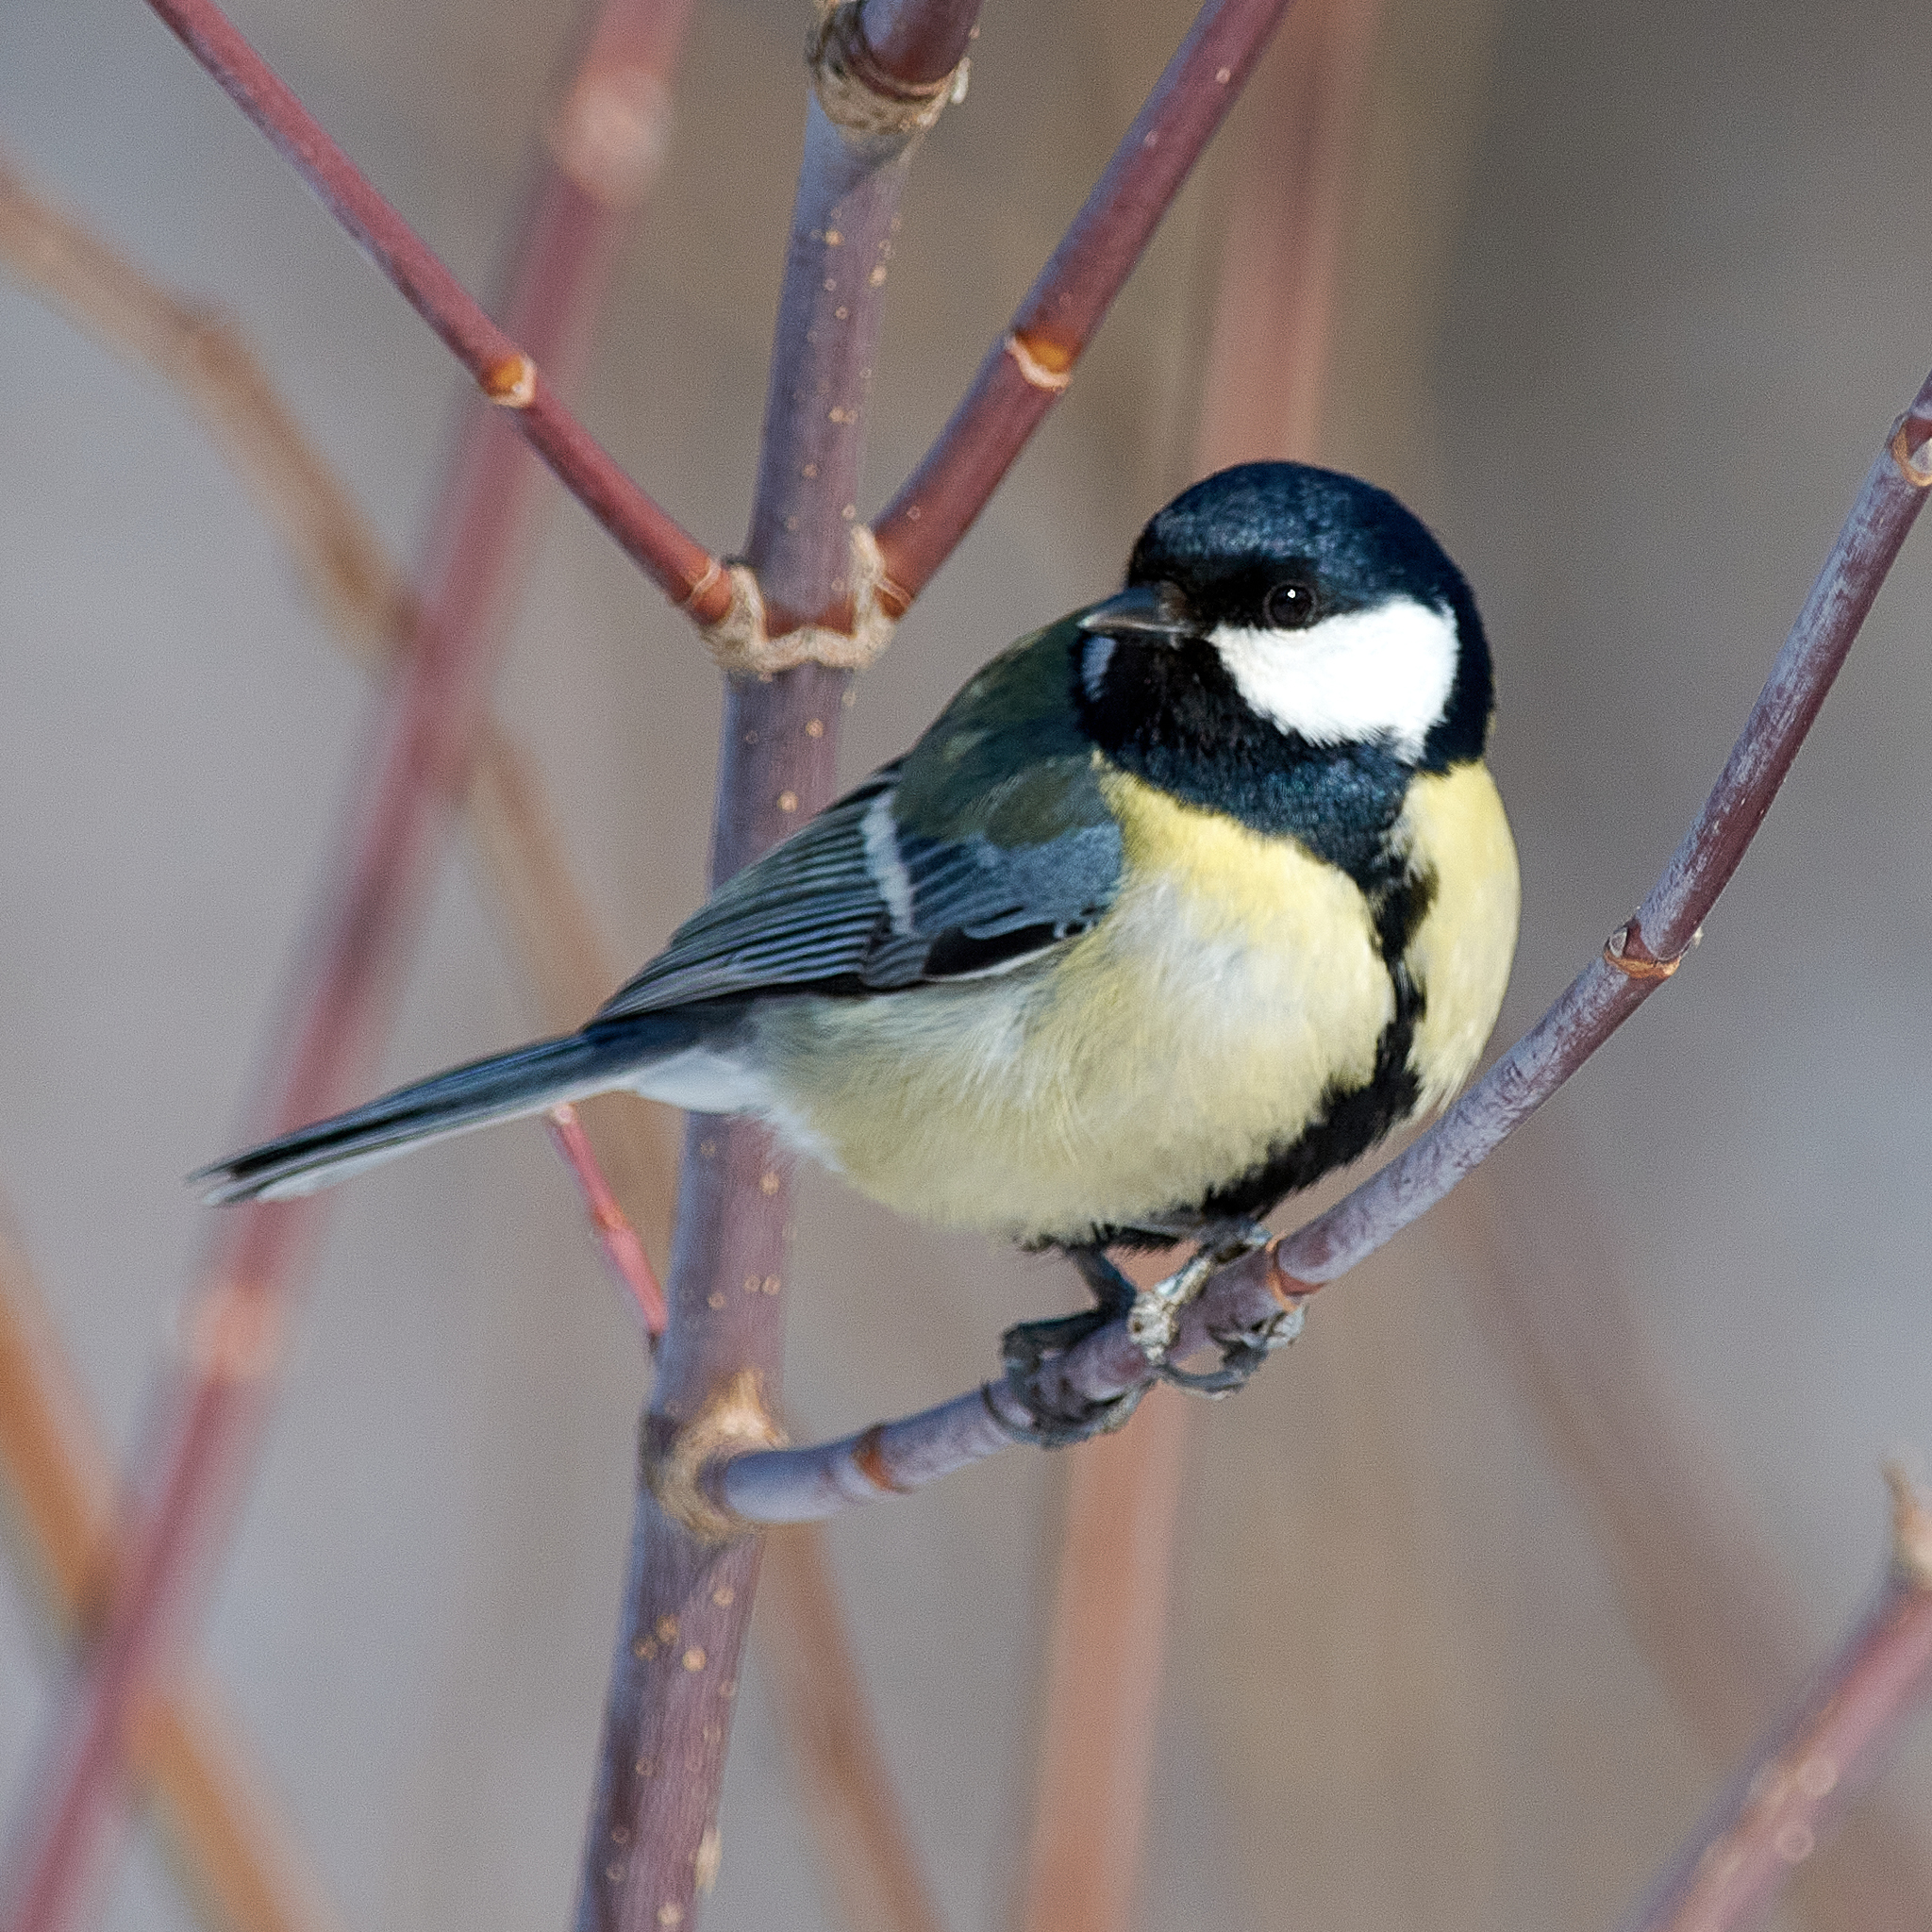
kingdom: Animalia
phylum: Chordata
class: Aves
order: Passeriformes
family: Paridae
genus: Parus
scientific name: Parus major
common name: Great tit
